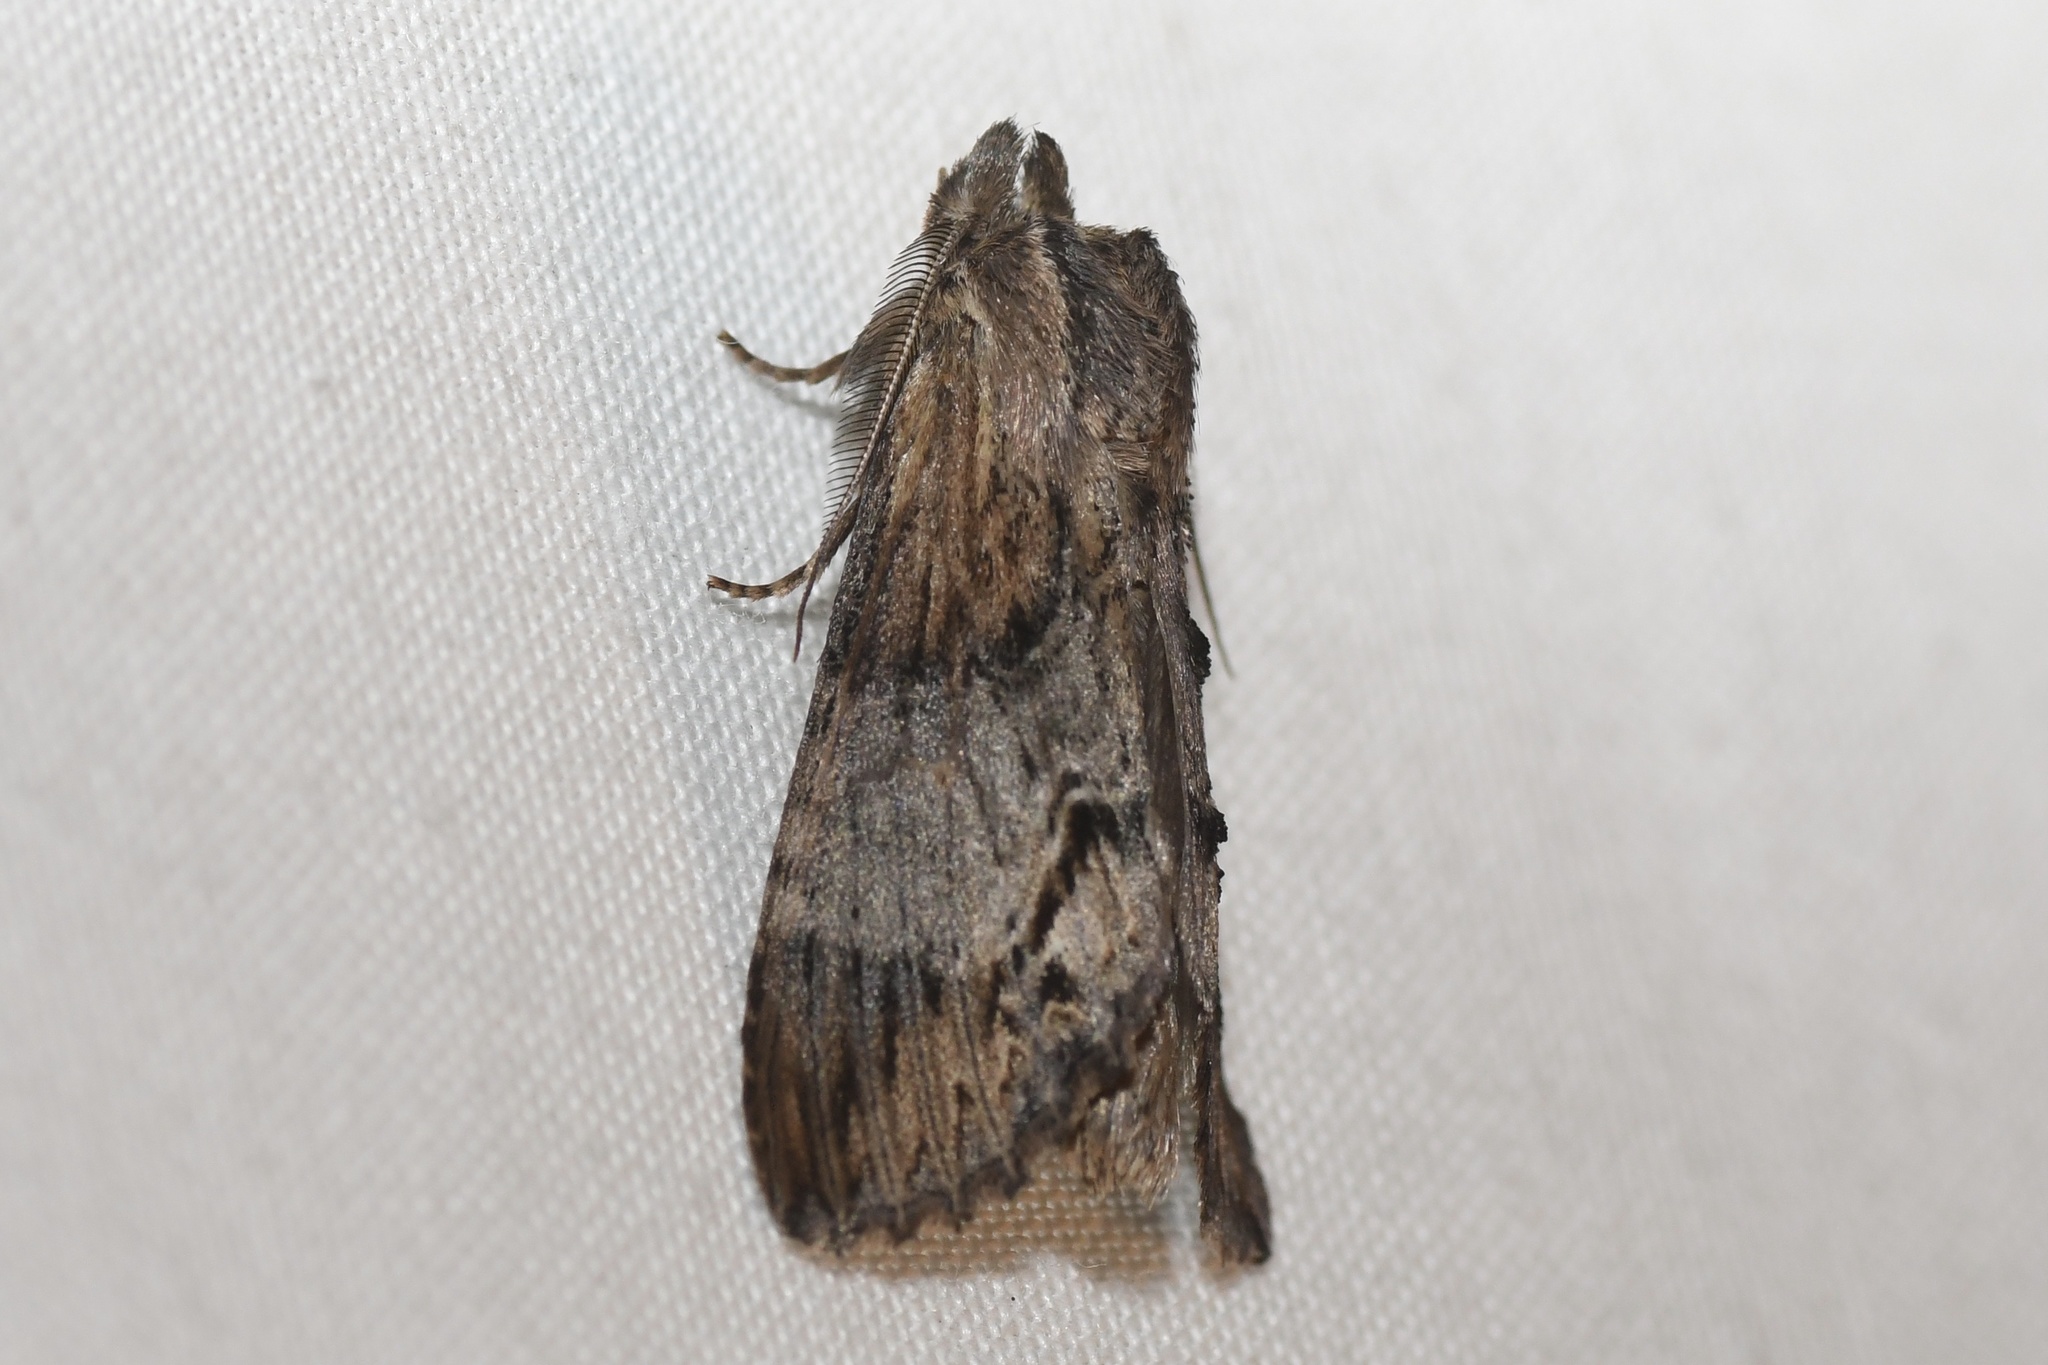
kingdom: Animalia
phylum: Arthropoda
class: Insecta
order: Lepidoptera
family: Notodontidae
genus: Dasylophia
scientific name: Dasylophia thyatiroides
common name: Gray-patched prominent
